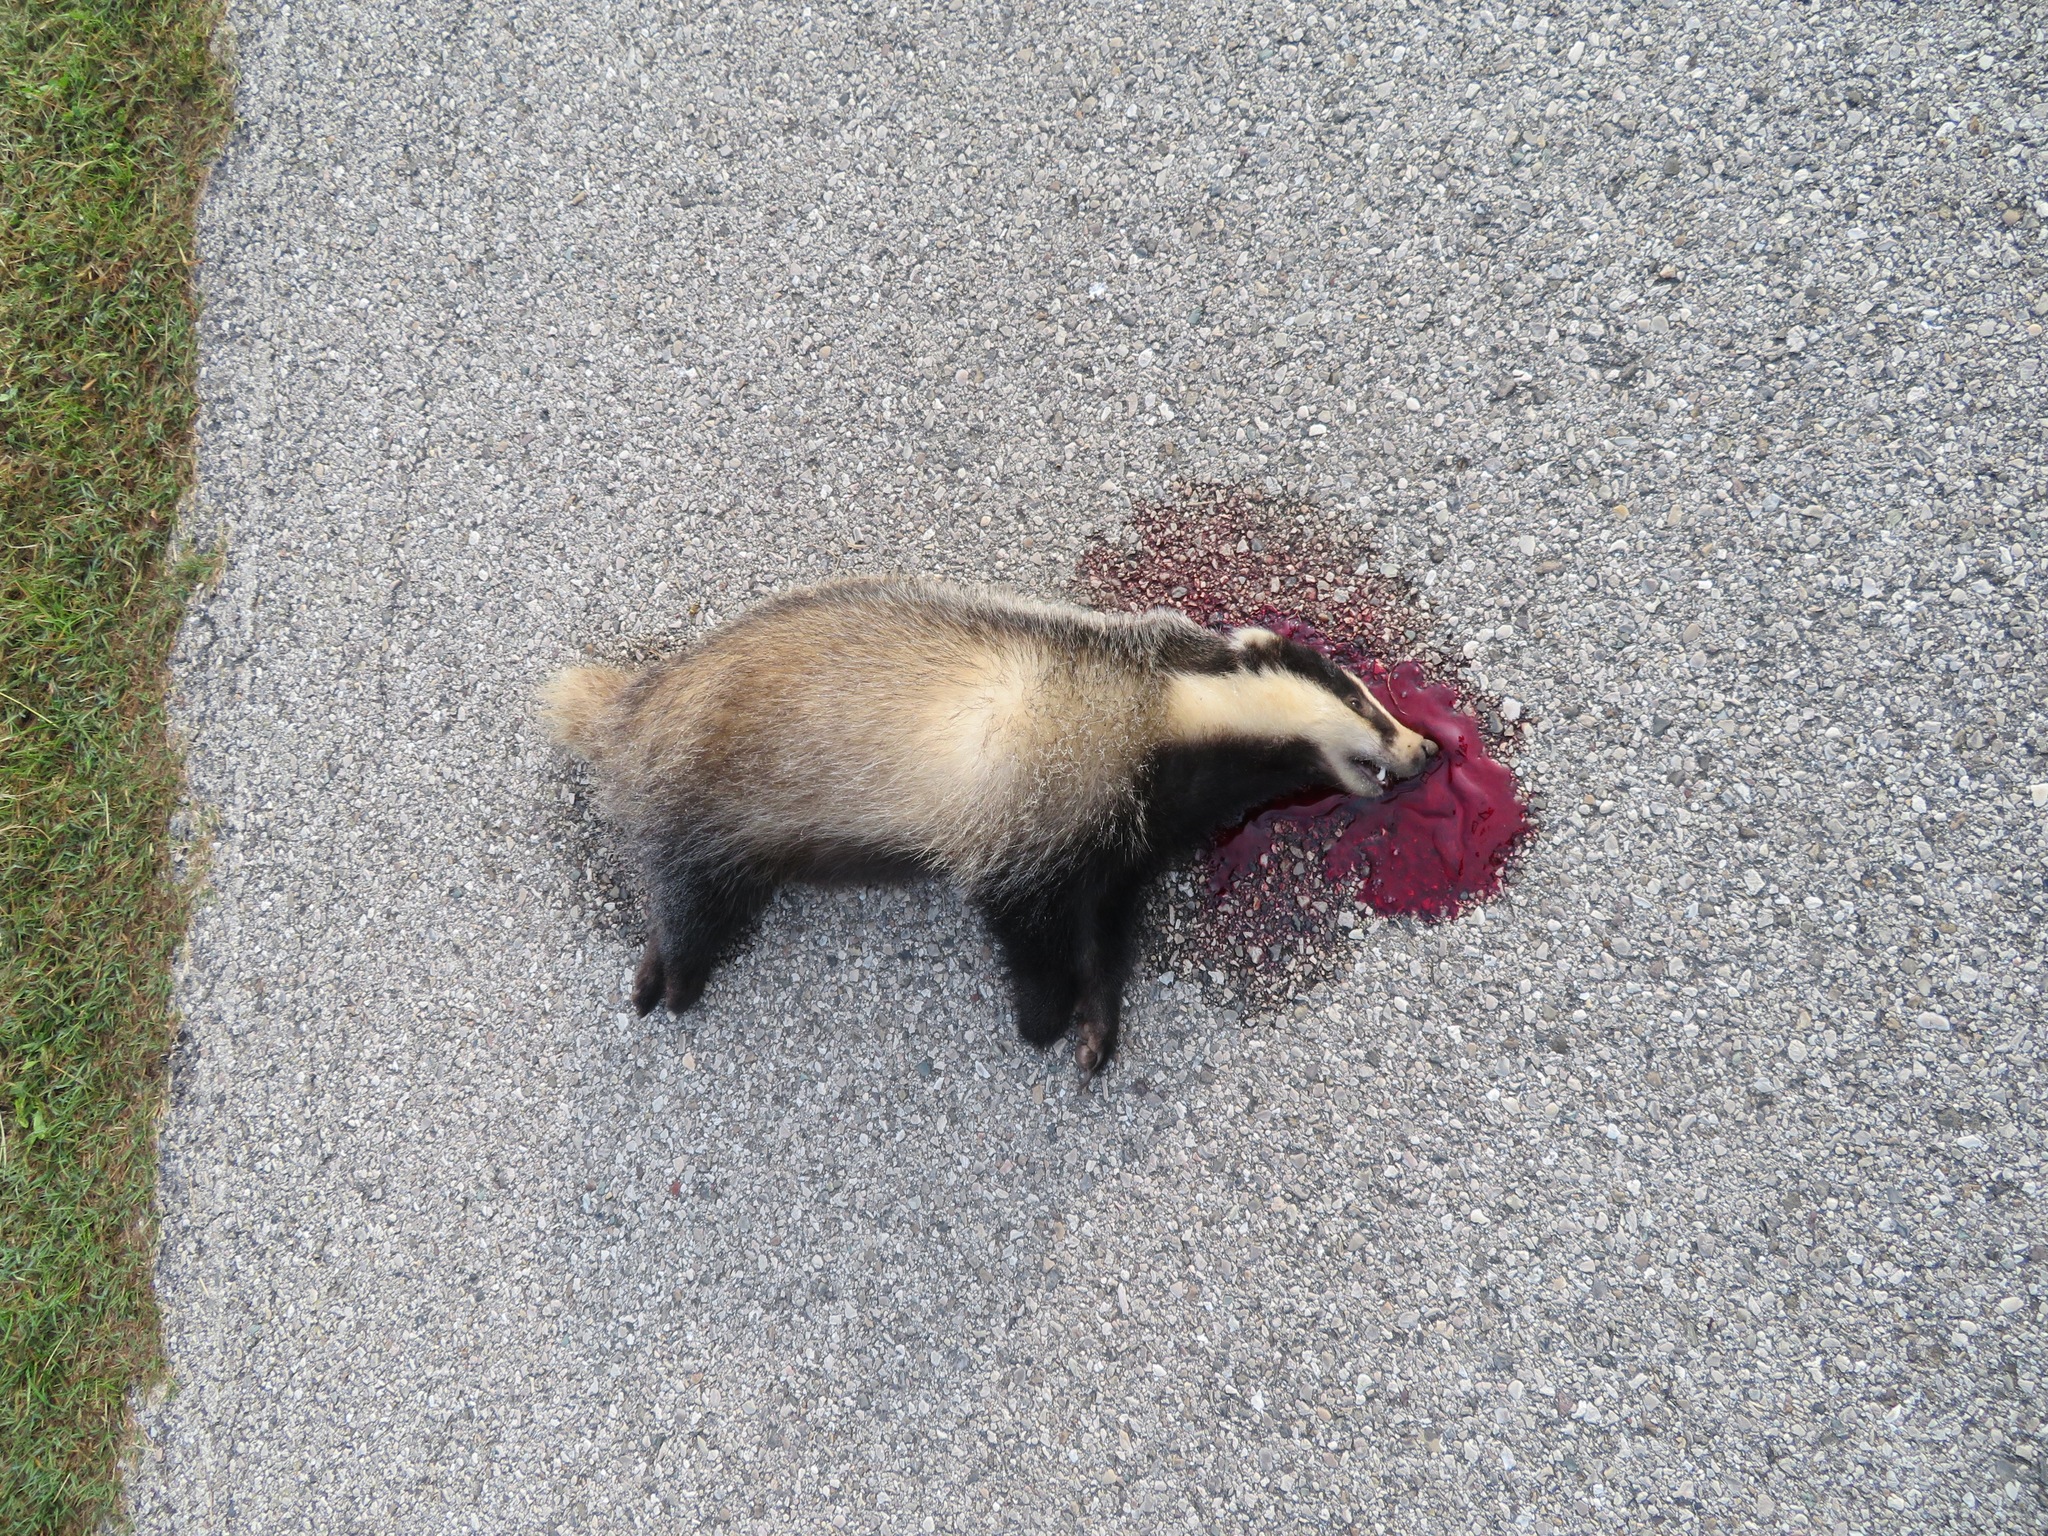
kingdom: Animalia
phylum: Chordata
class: Mammalia
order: Carnivora
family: Mustelidae
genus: Meles
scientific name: Meles meles
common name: Eurasian badger
